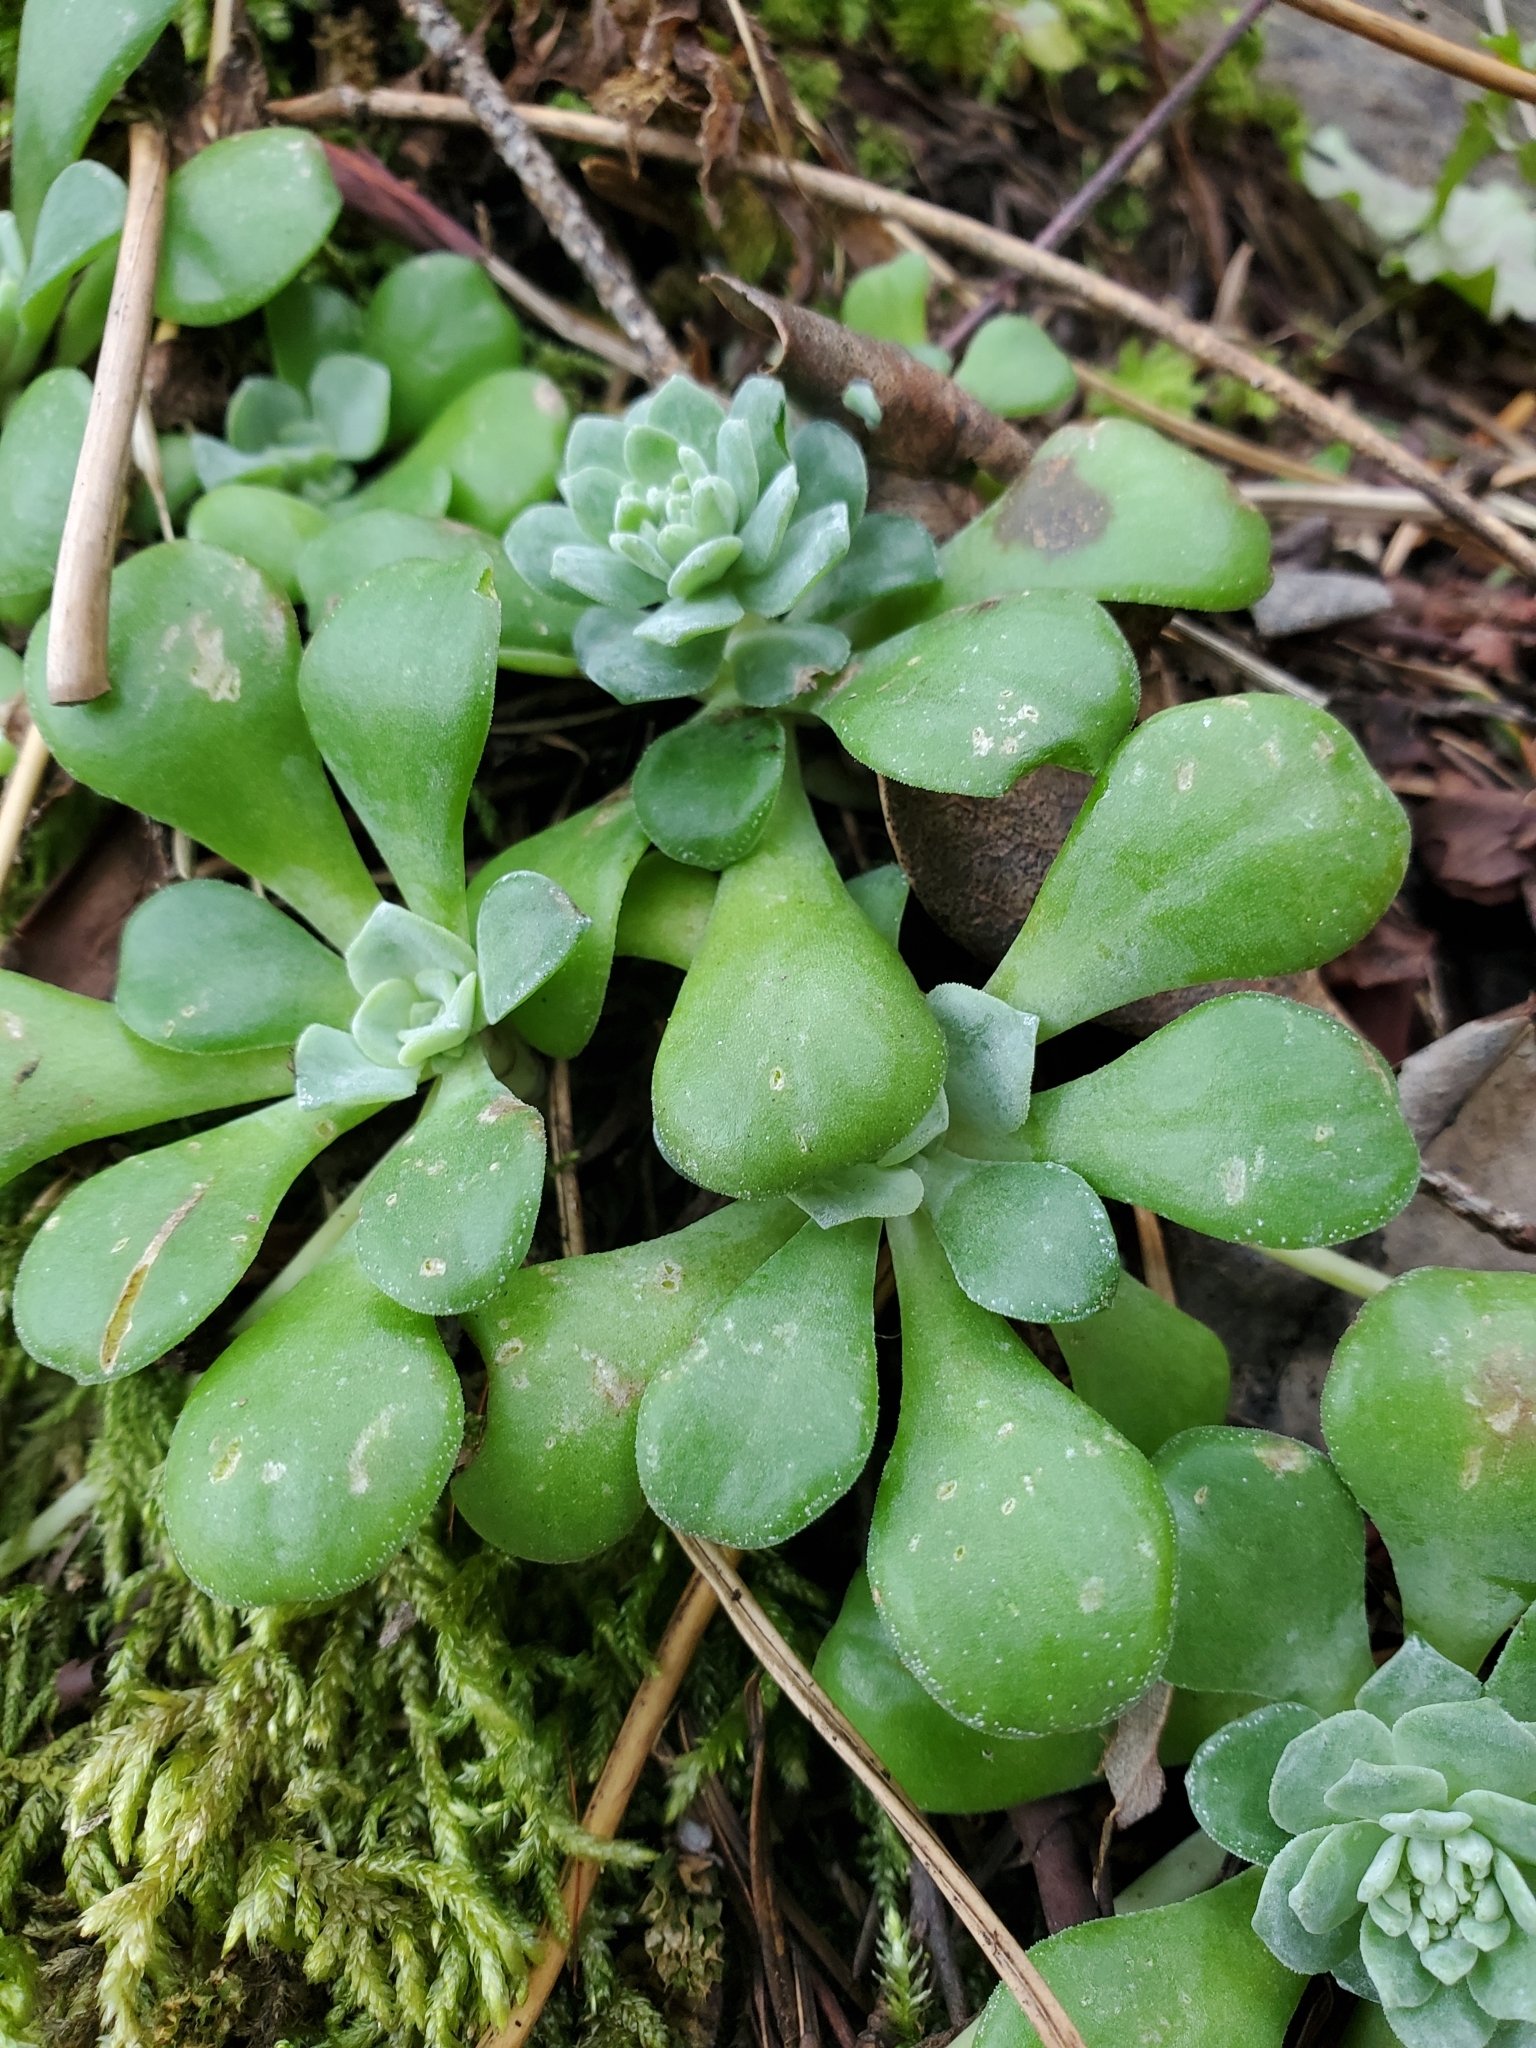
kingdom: Plantae
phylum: Tracheophyta
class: Magnoliopsida
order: Saxifragales
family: Crassulaceae
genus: Sedum
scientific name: Sedum spathulifolium
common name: Colorado stonecrop
